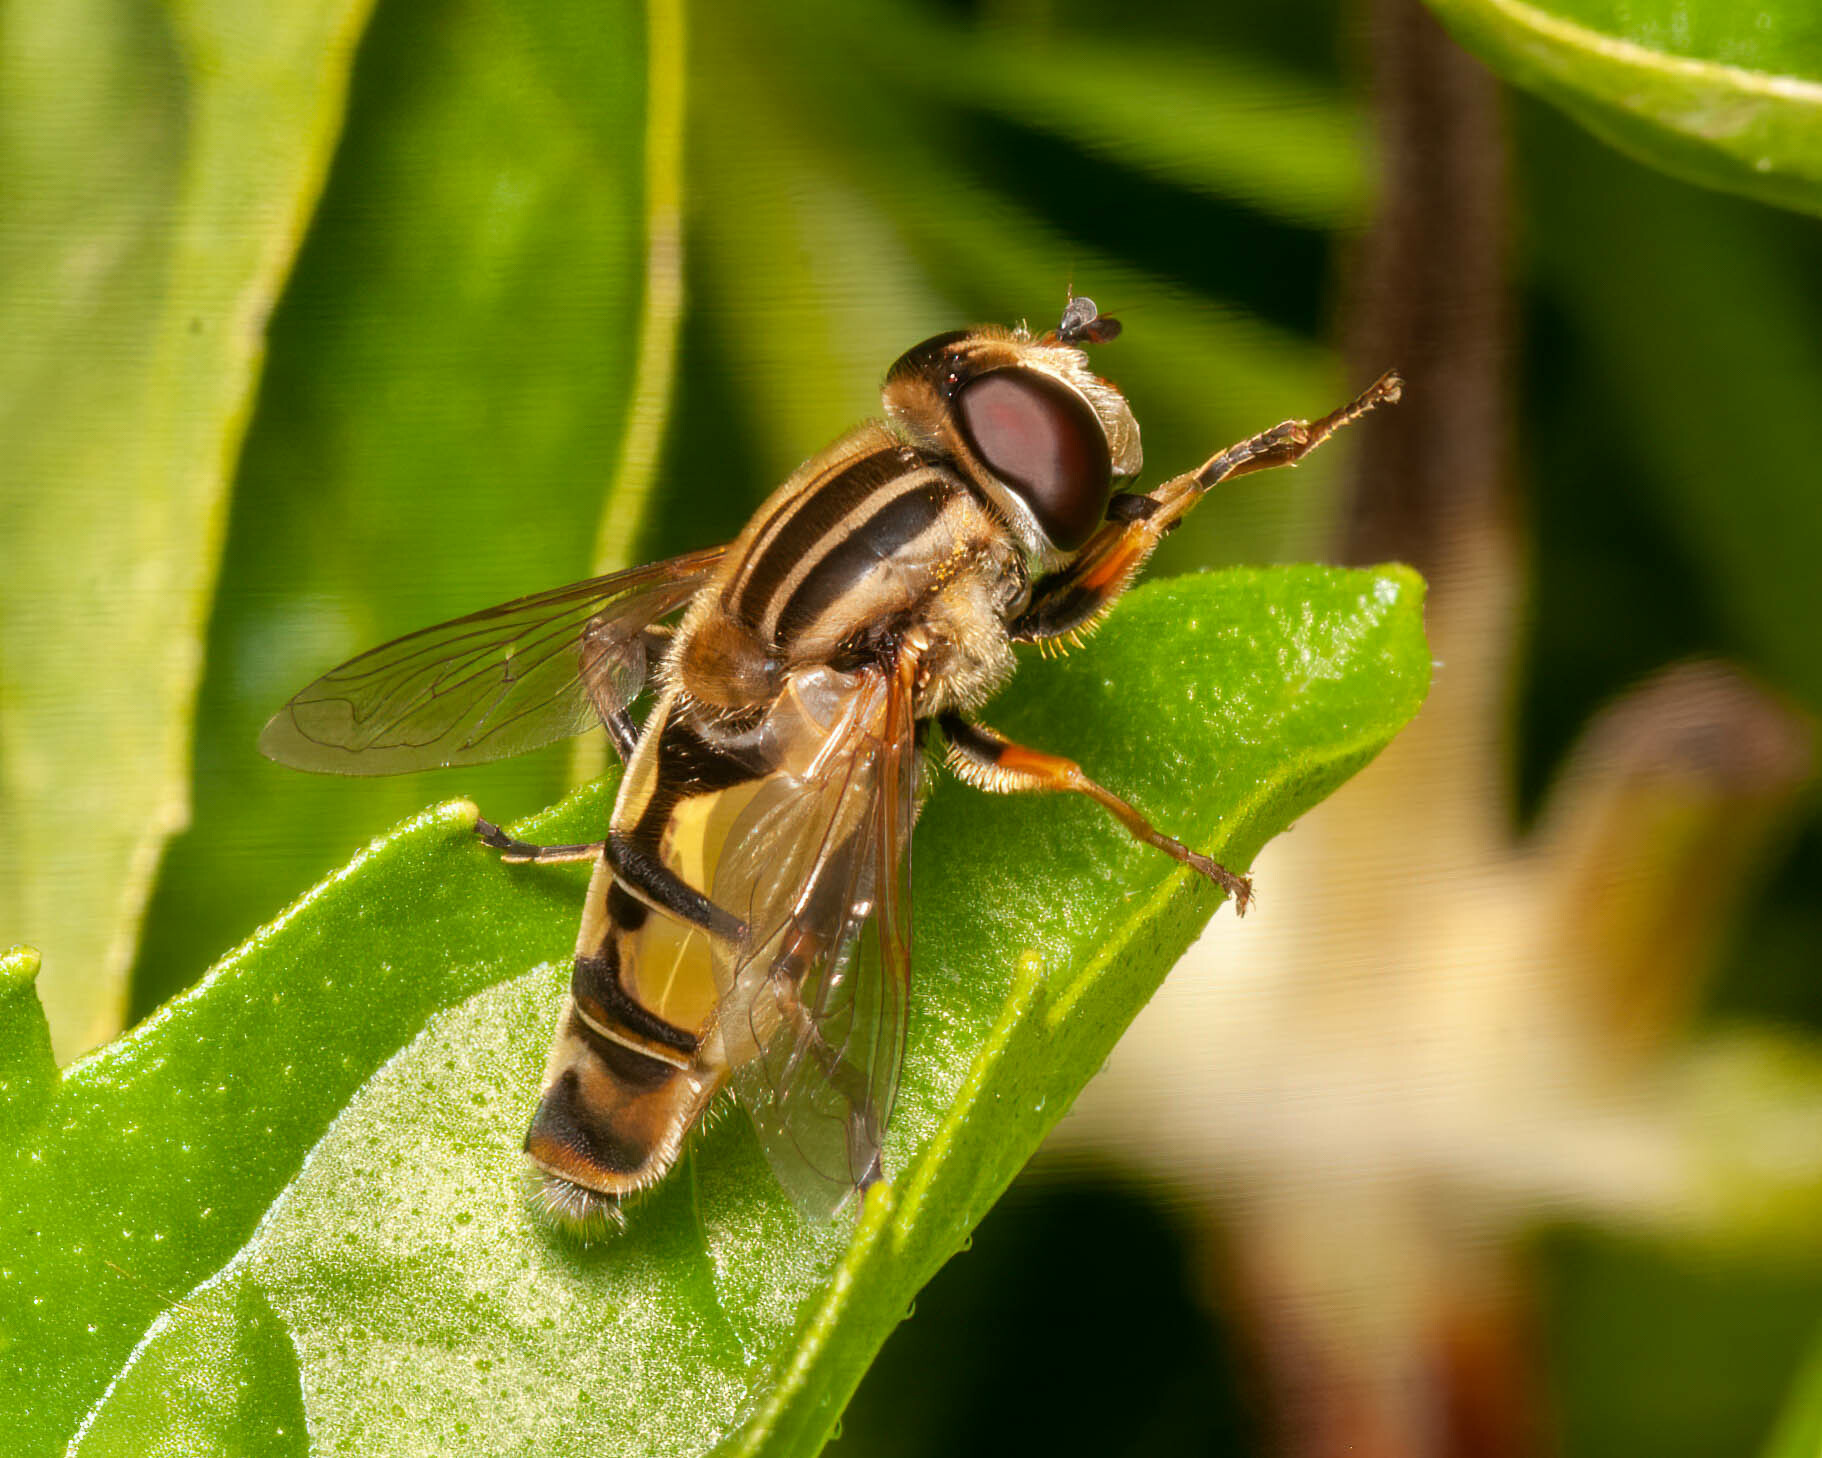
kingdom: Animalia
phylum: Arthropoda
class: Insecta
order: Diptera
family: Syrphidae
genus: Helophilus
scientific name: Helophilus latifrons
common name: Broad-headed marsh fly
